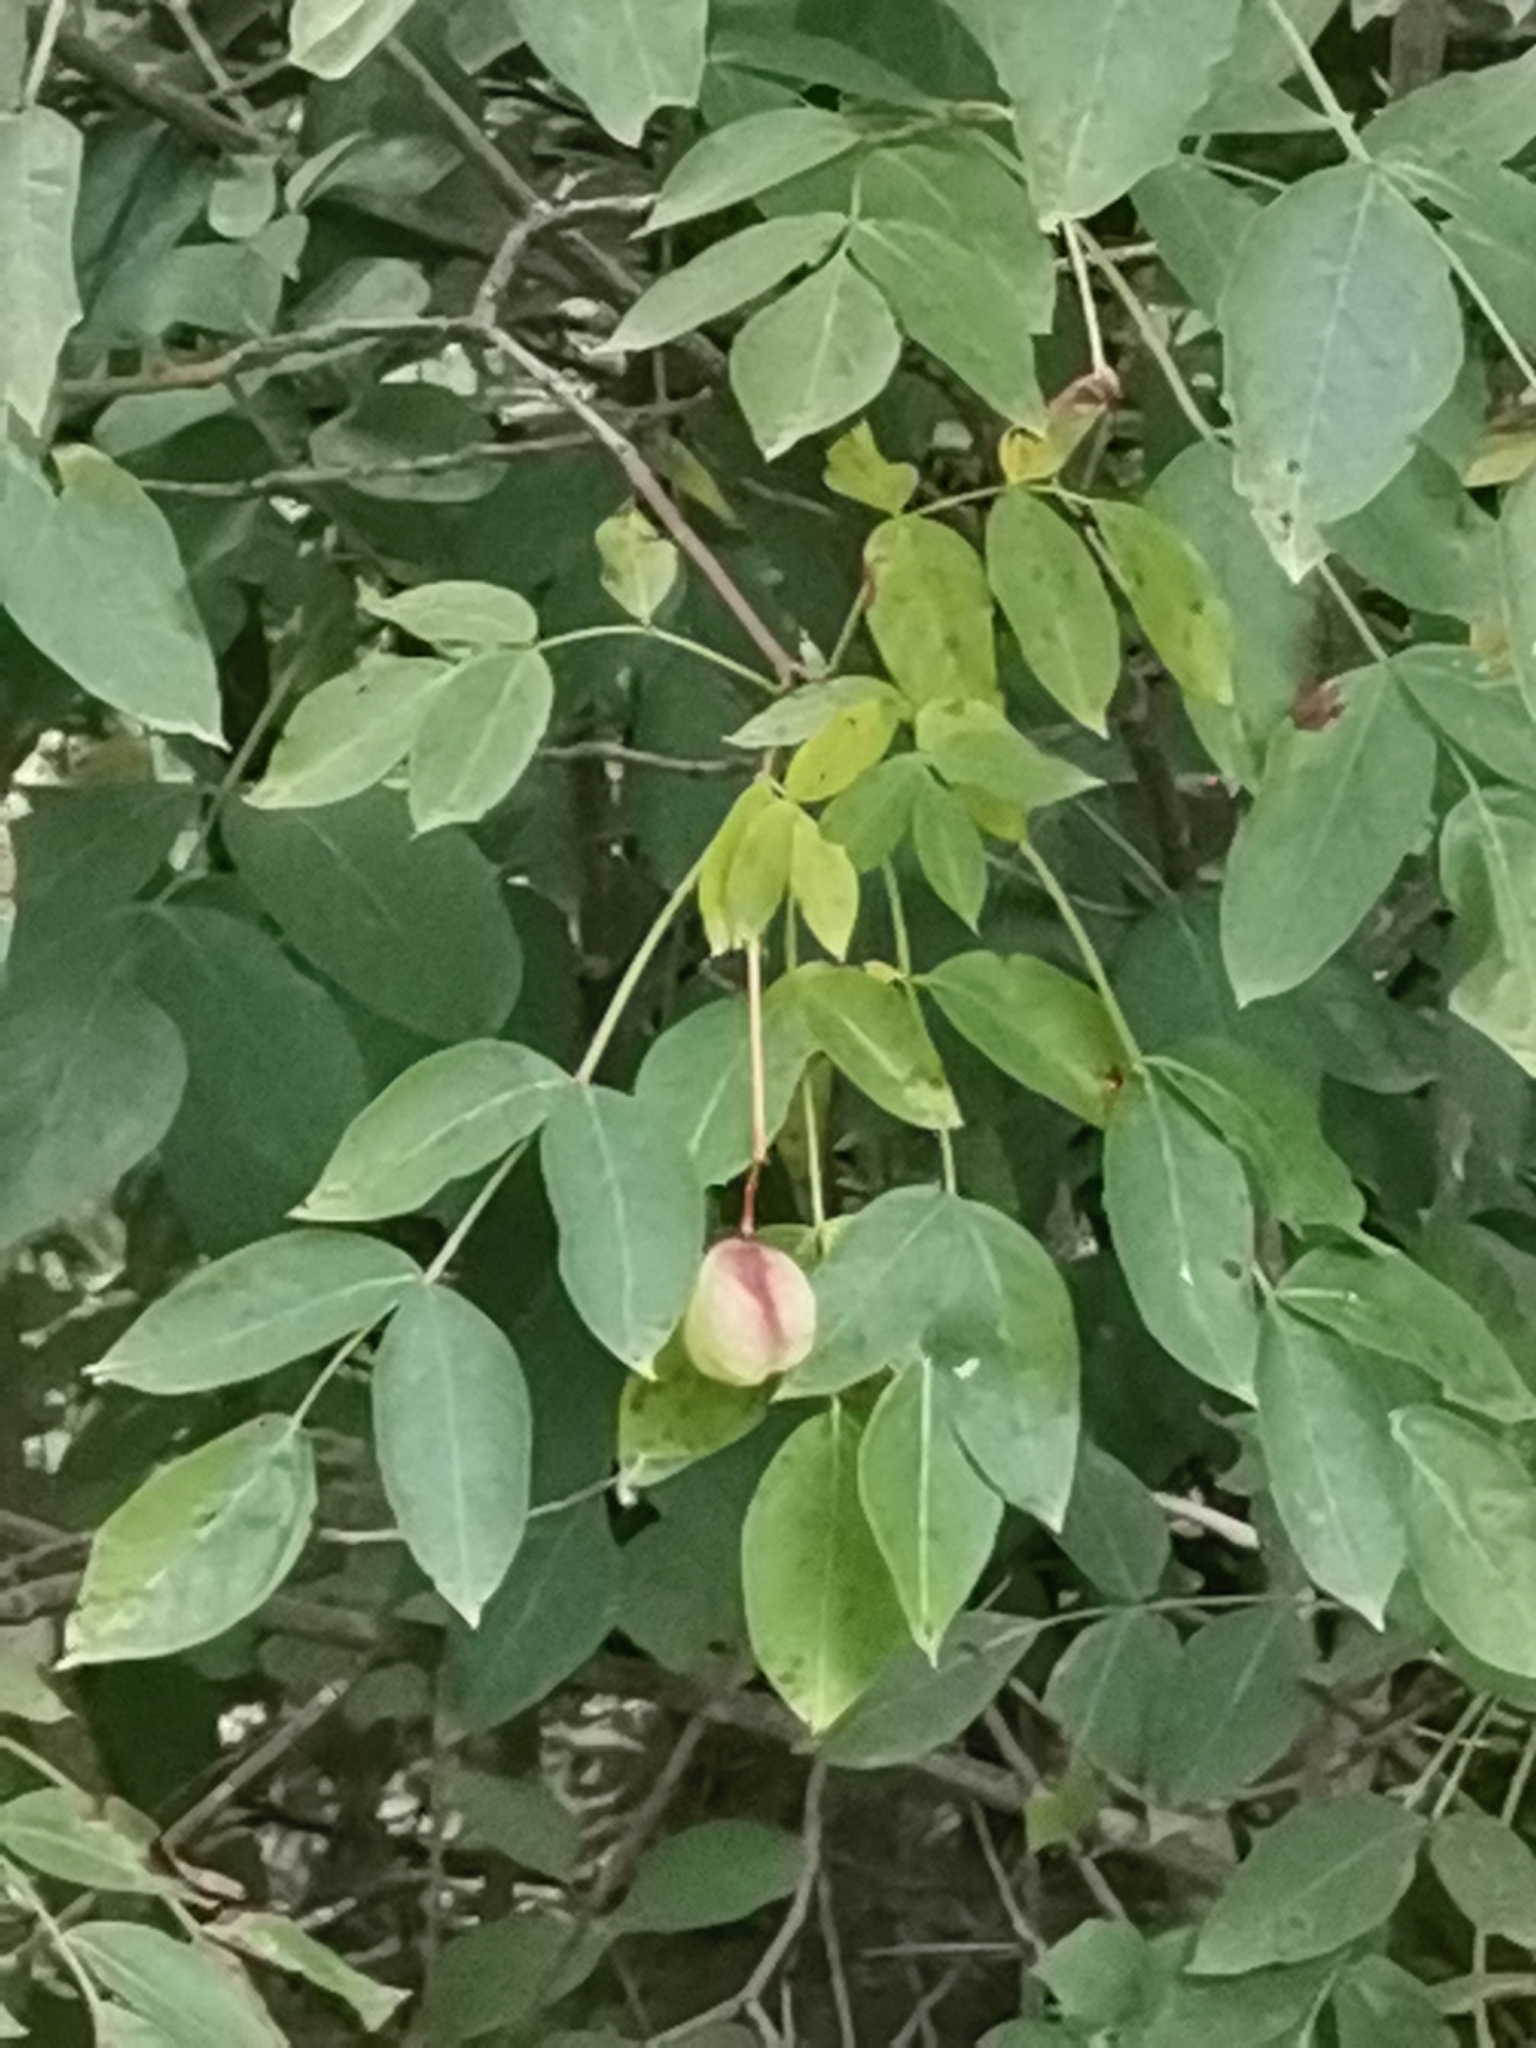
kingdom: Plantae
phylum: Tracheophyta
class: Magnoliopsida
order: Crossosomatales
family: Staphyleaceae
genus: Staphylea
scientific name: Staphylea pinnata
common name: Bladdernut
